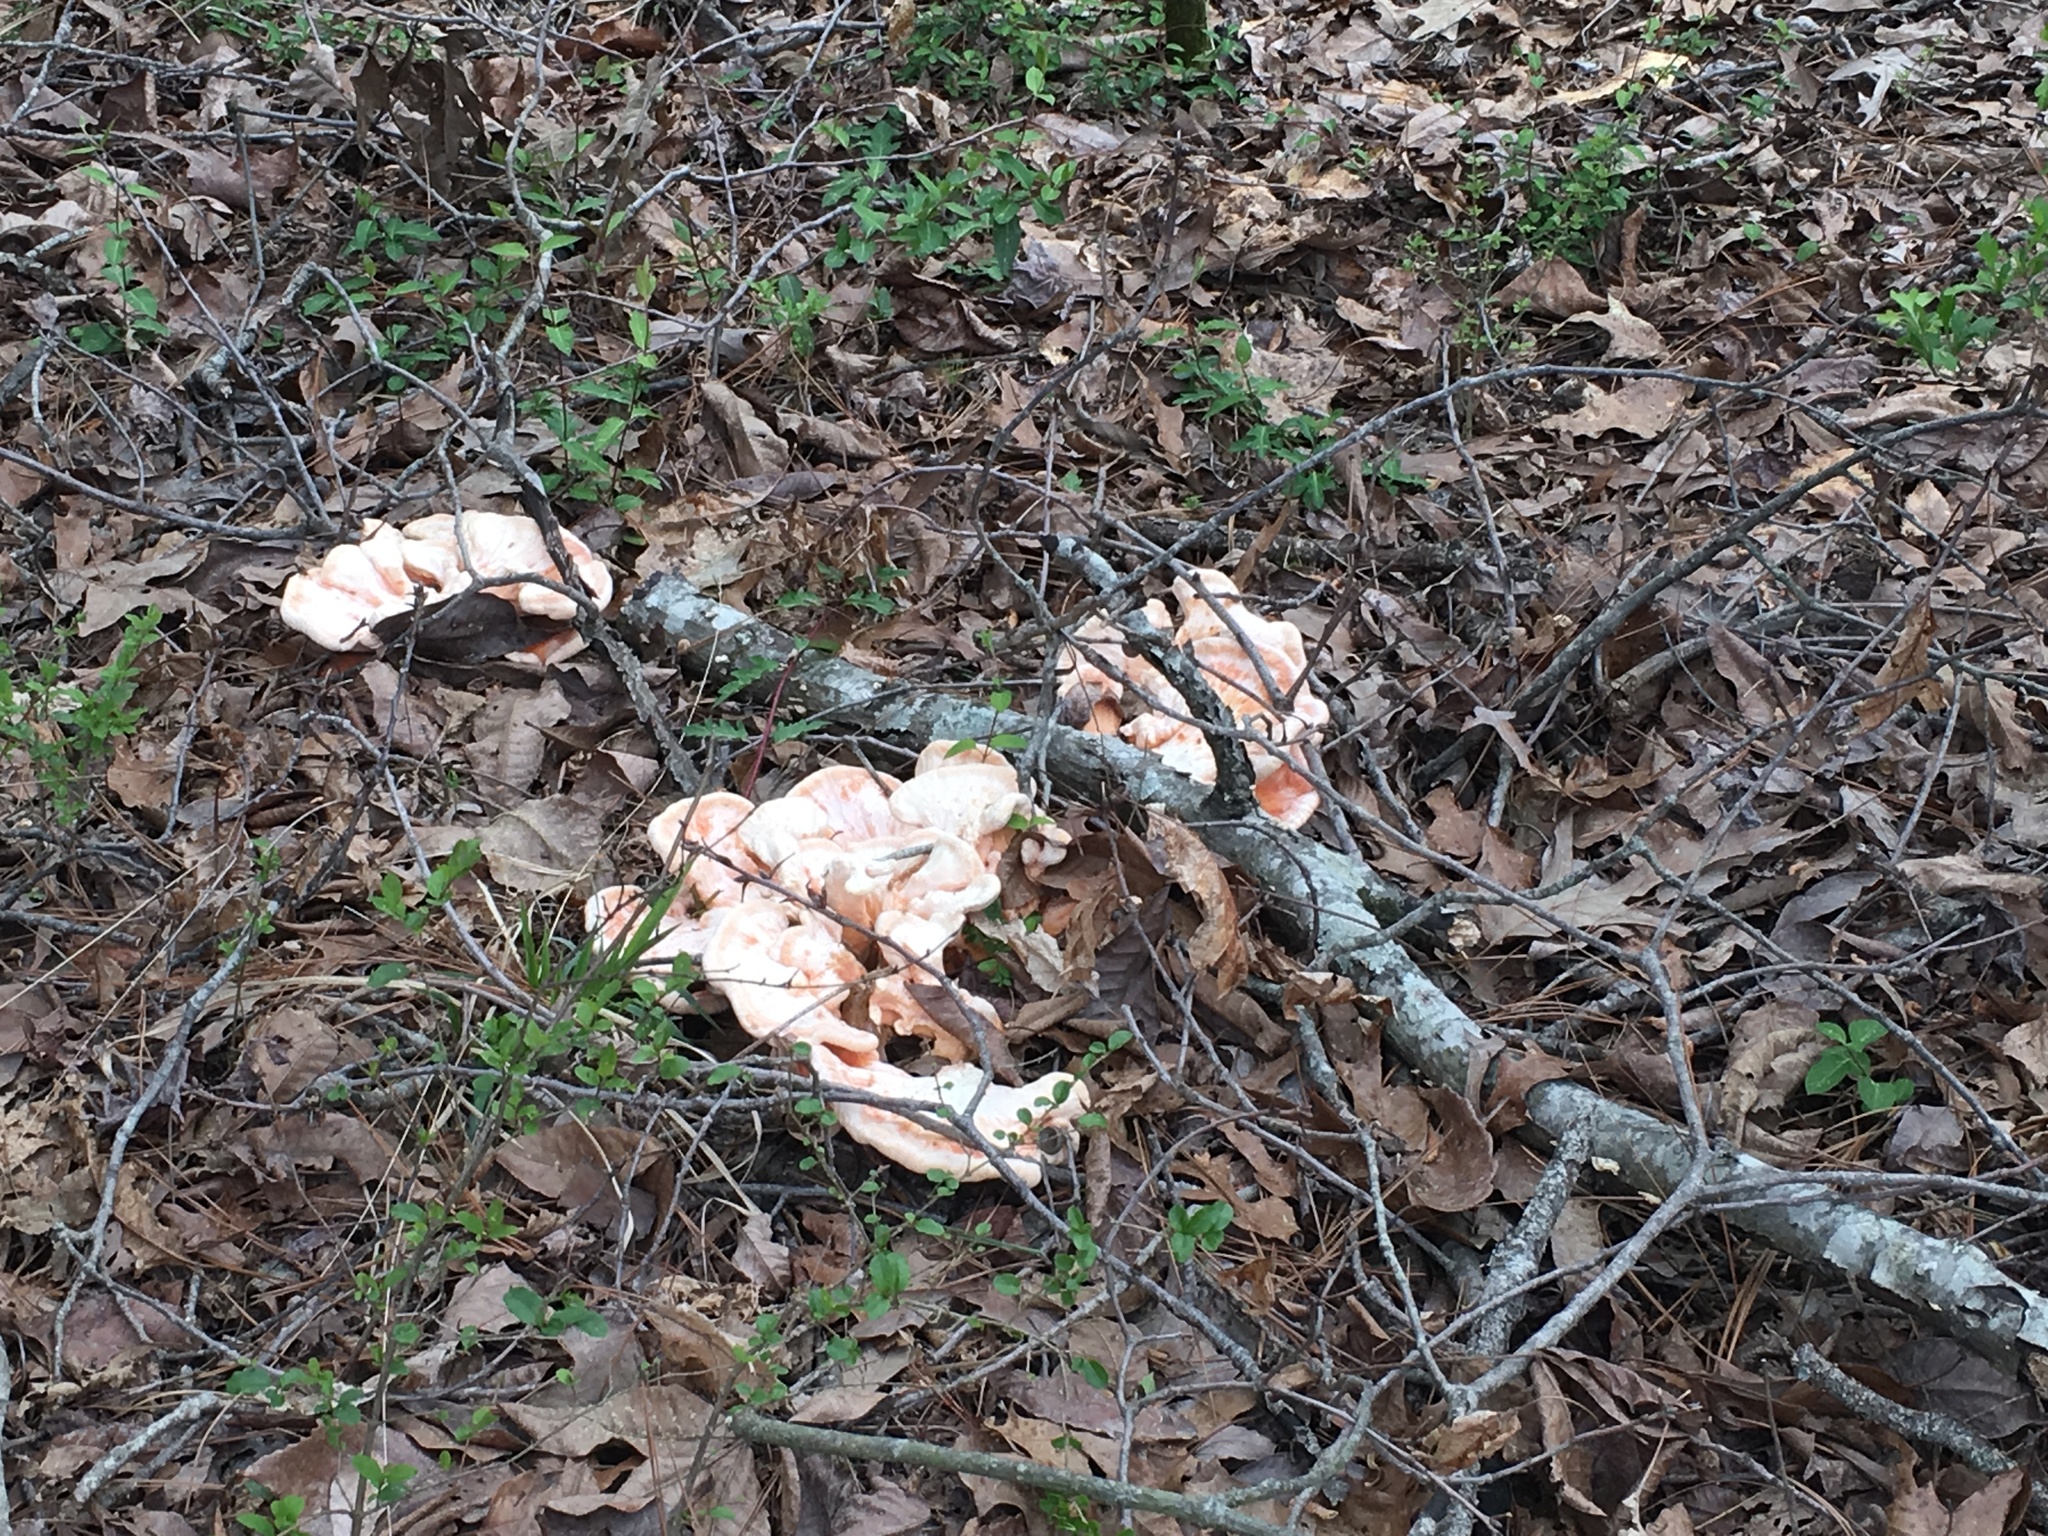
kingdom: Fungi
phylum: Basidiomycota
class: Agaricomycetes
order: Polyporales
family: Laetiporaceae
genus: Laetiporus
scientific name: Laetiporus sulphureus
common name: Chicken of the woods
